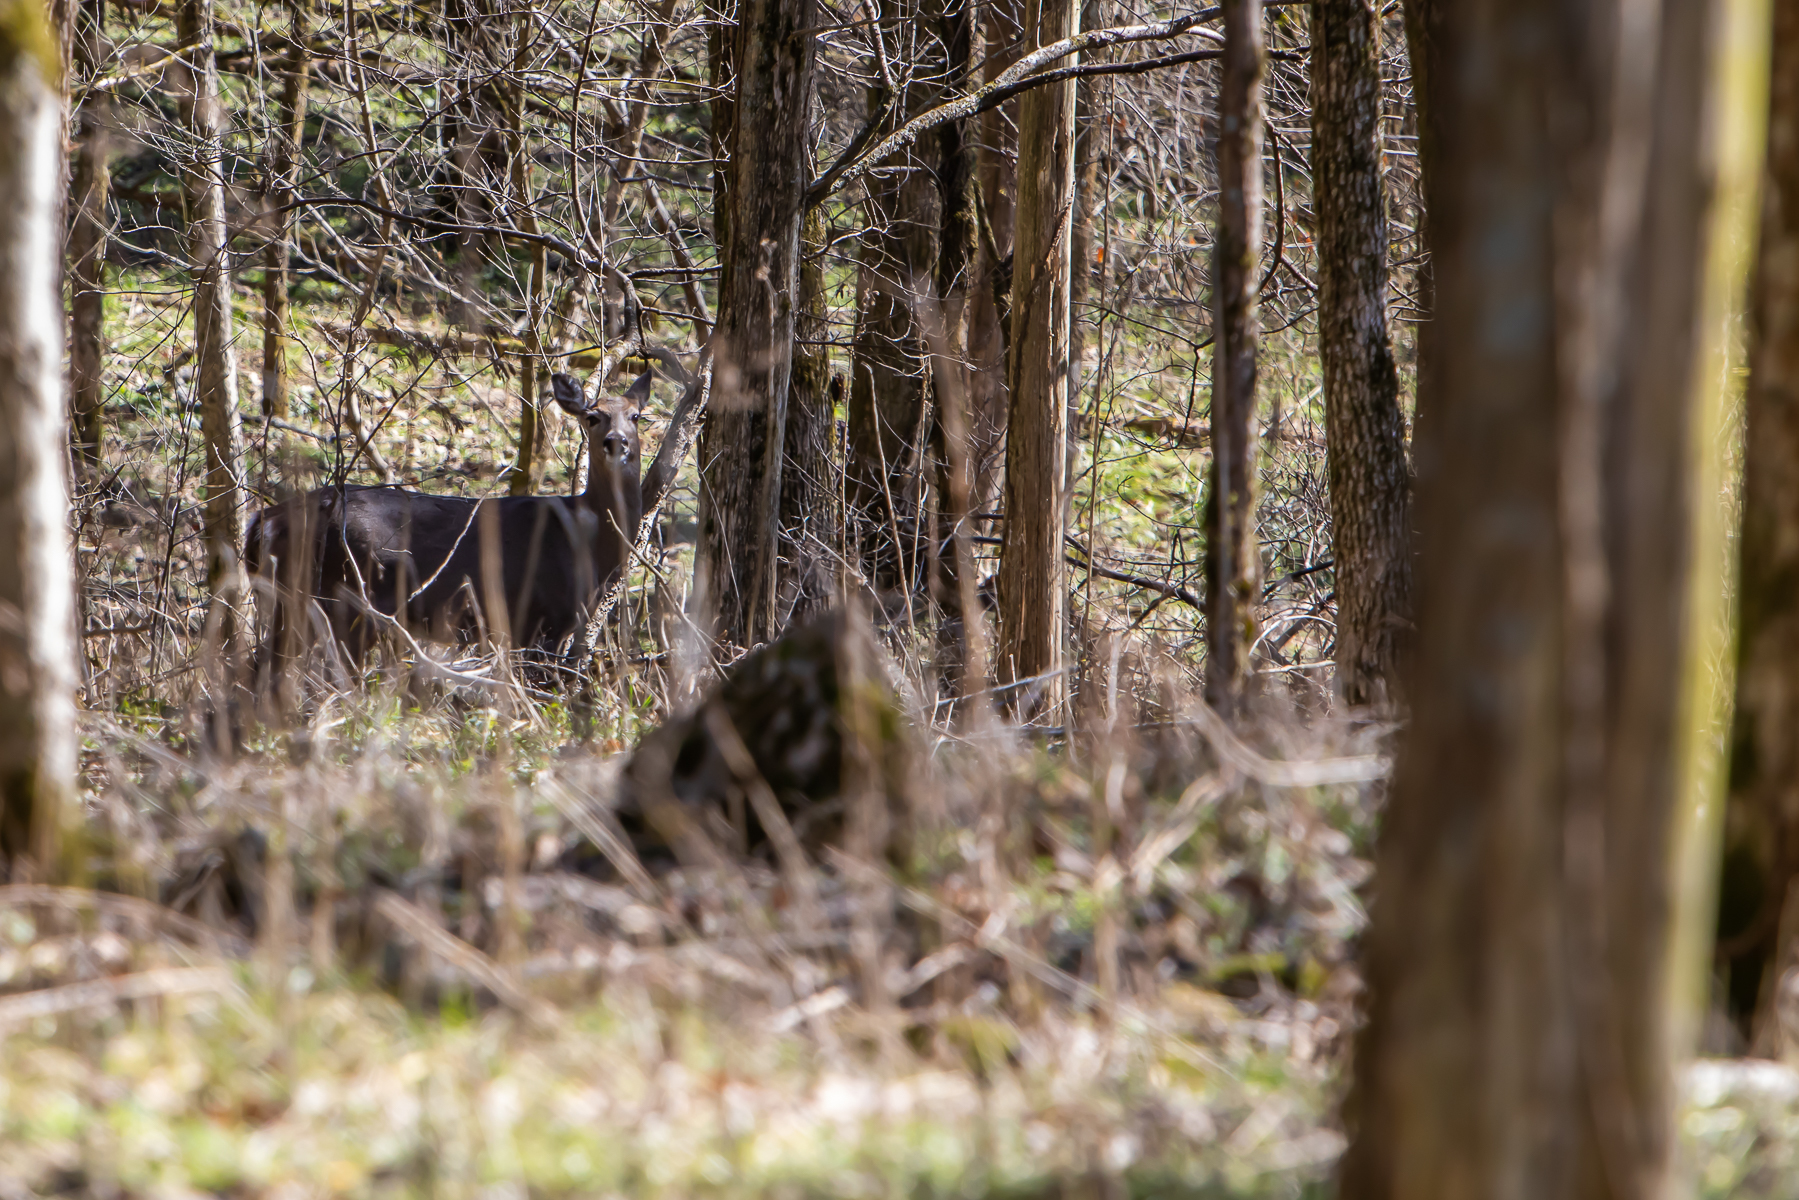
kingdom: Animalia
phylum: Chordata
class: Mammalia
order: Artiodactyla
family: Cervidae
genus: Odocoileus
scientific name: Odocoileus virginianus
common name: White-tailed deer
